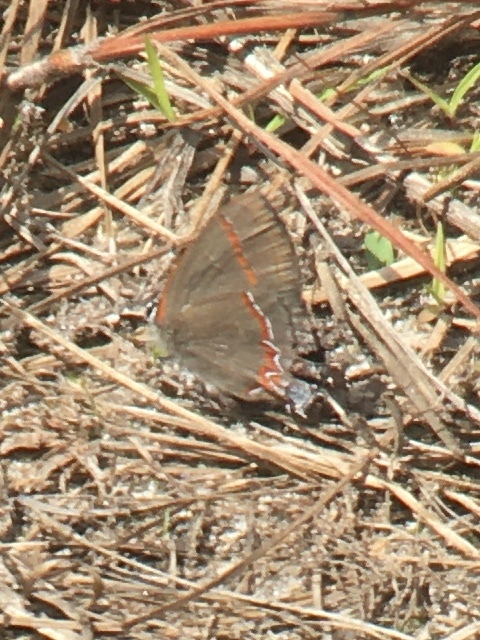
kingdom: Animalia
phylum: Arthropoda
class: Insecta
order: Lepidoptera
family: Lycaenidae
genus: Calycopis
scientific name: Calycopis cecrops
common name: Red-banded hairstreak
